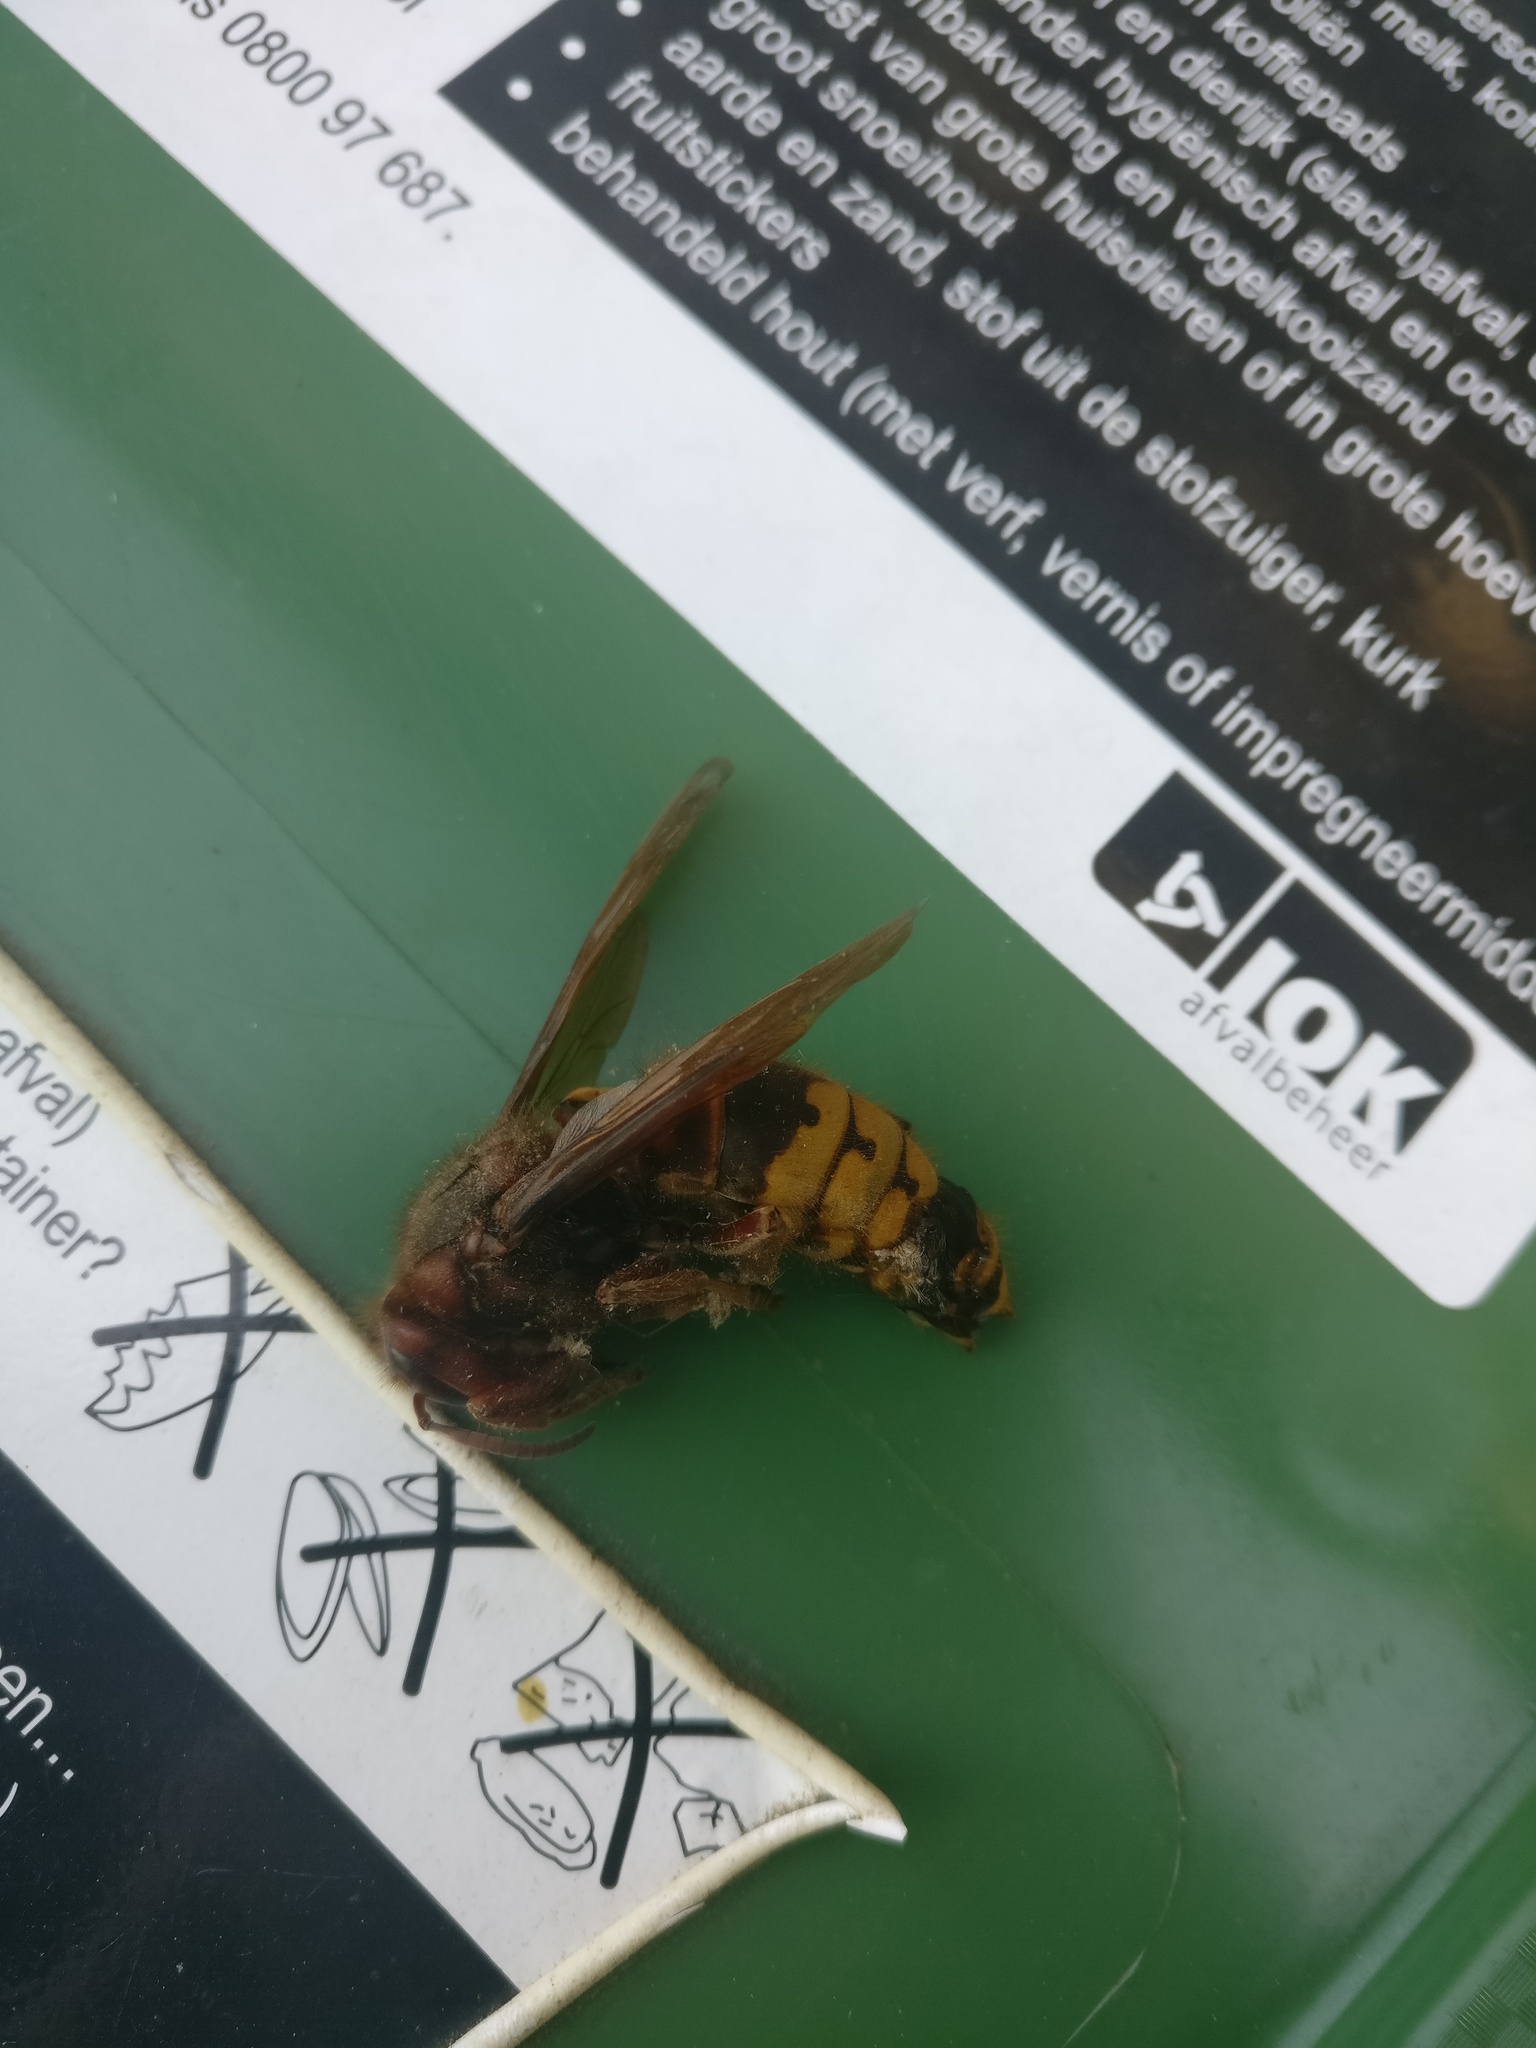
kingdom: Animalia
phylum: Arthropoda
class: Insecta
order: Hymenoptera
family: Vespidae
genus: Vespa
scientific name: Vespa crabro
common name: Hornet
